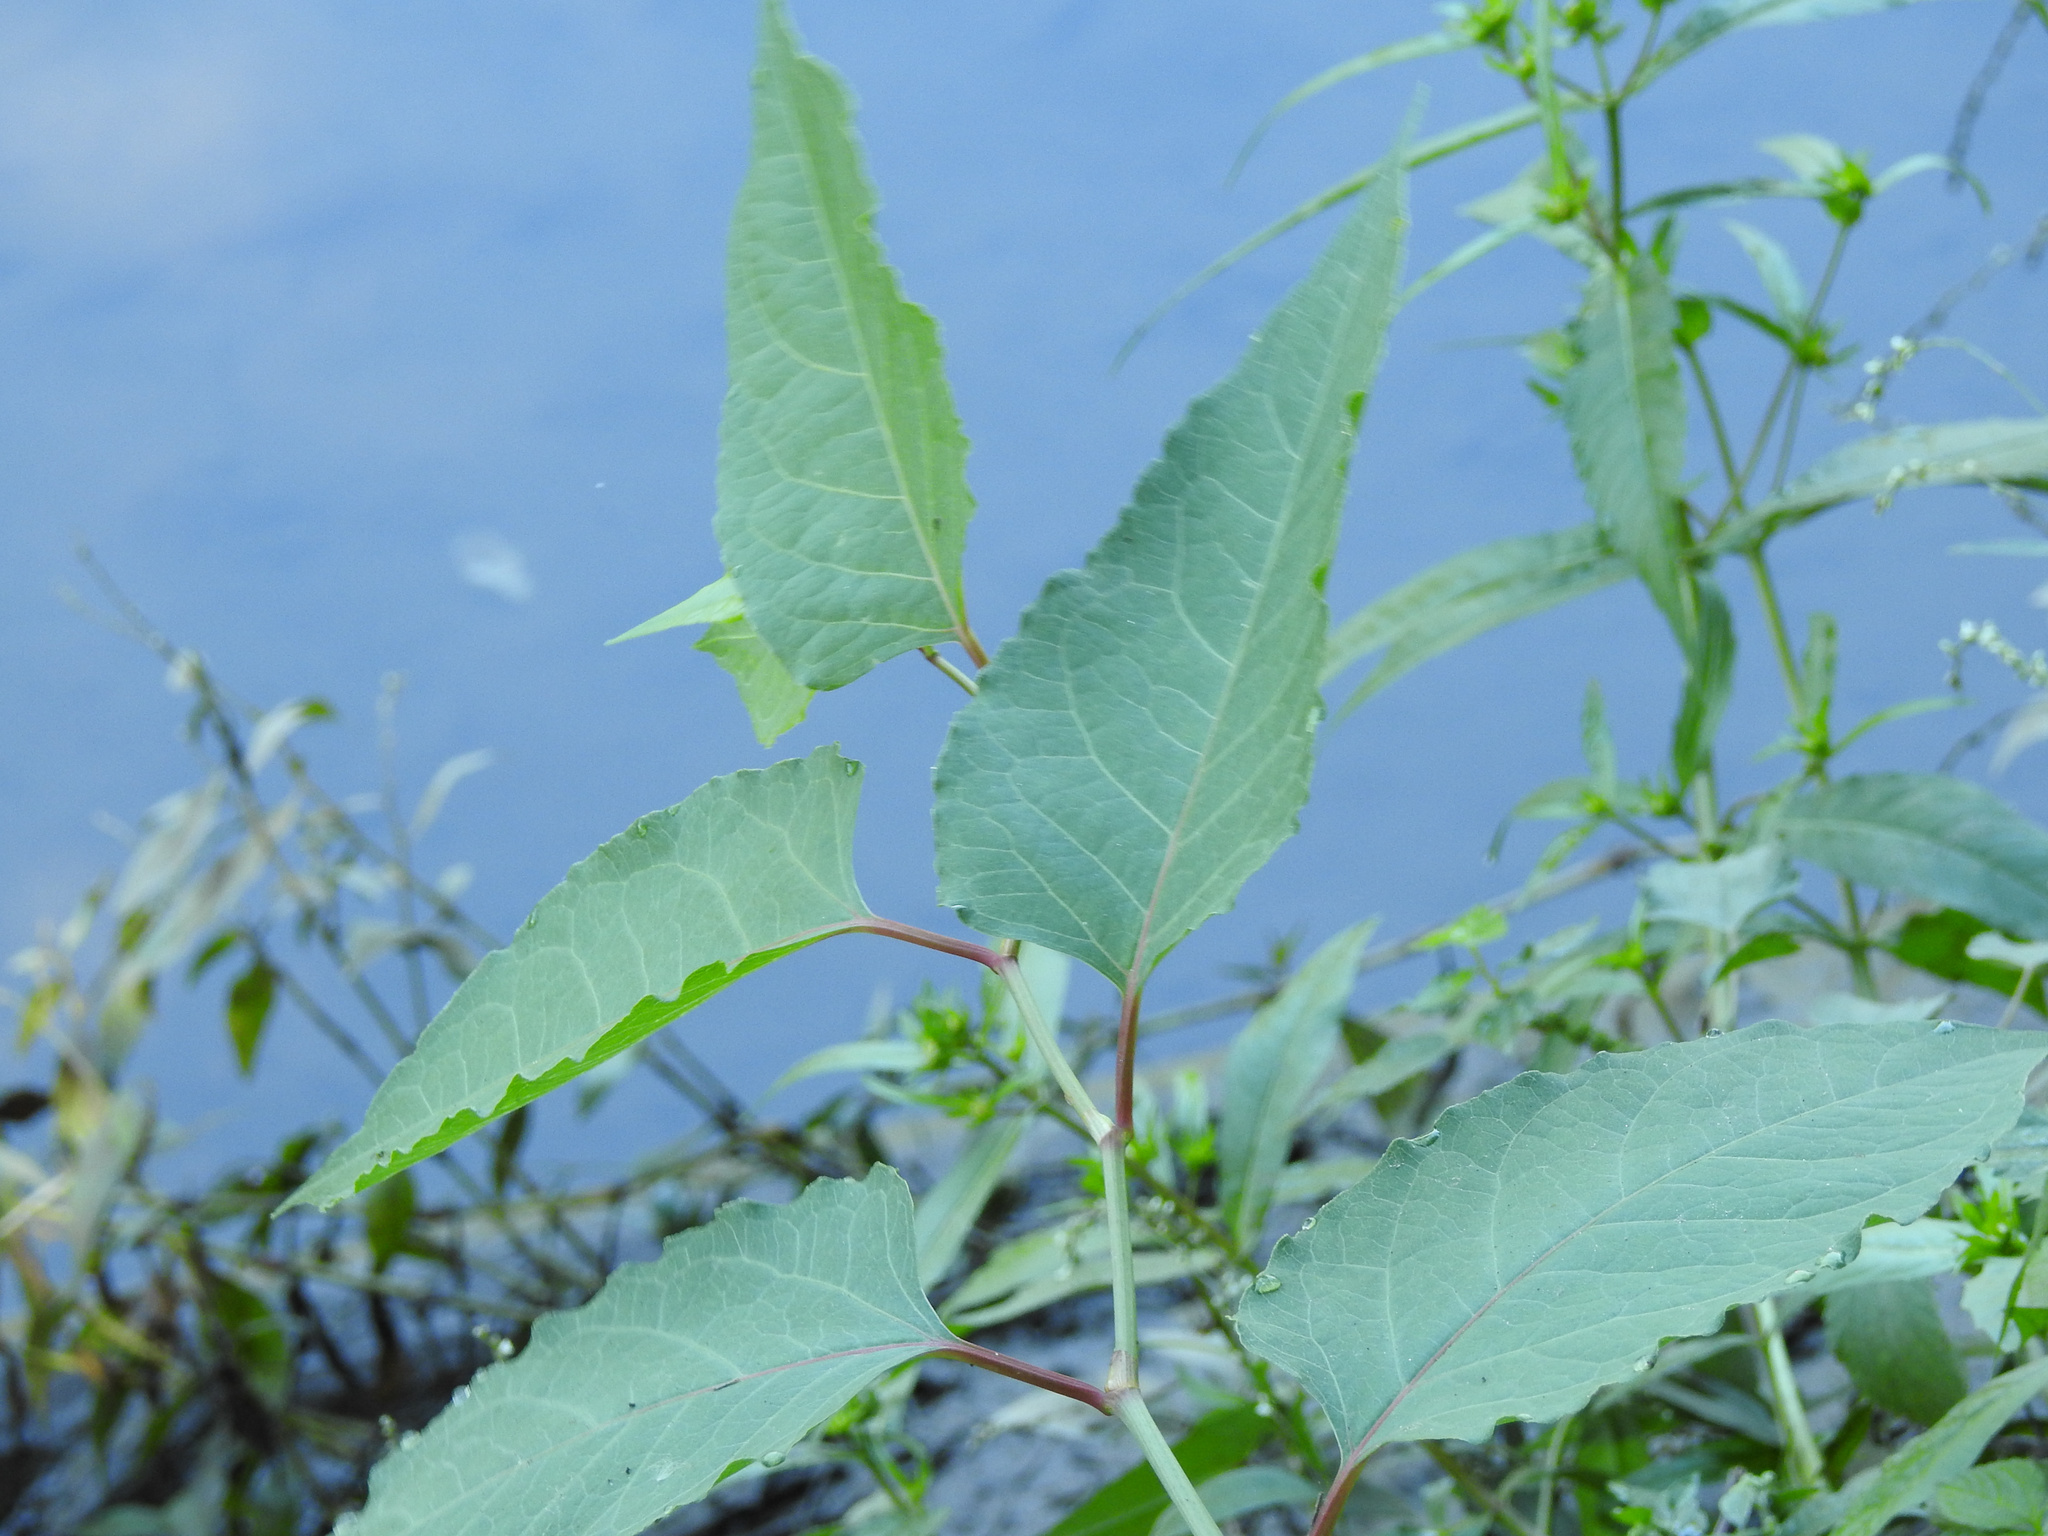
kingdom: Plantae
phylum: Tracheophyta
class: Magnoliopsida
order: Caryophyllales
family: Polygonaceae
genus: Reynoutria
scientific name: Reynoutria japonica
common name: Japanese knotweed
